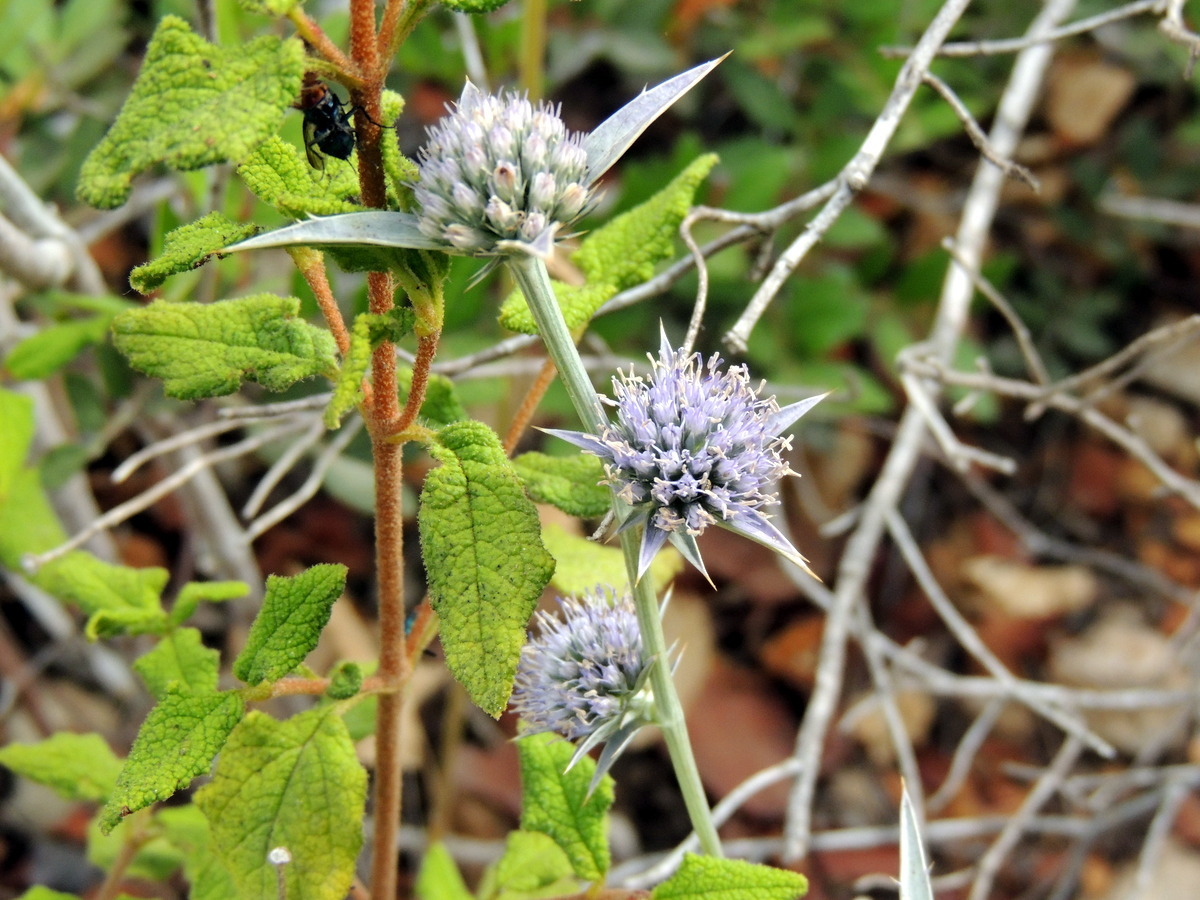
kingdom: Plantae
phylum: Tracheophyta
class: Magnoliopsida
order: Apiales
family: Apiaceae
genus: Eryngium
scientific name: Eryngium creticum
